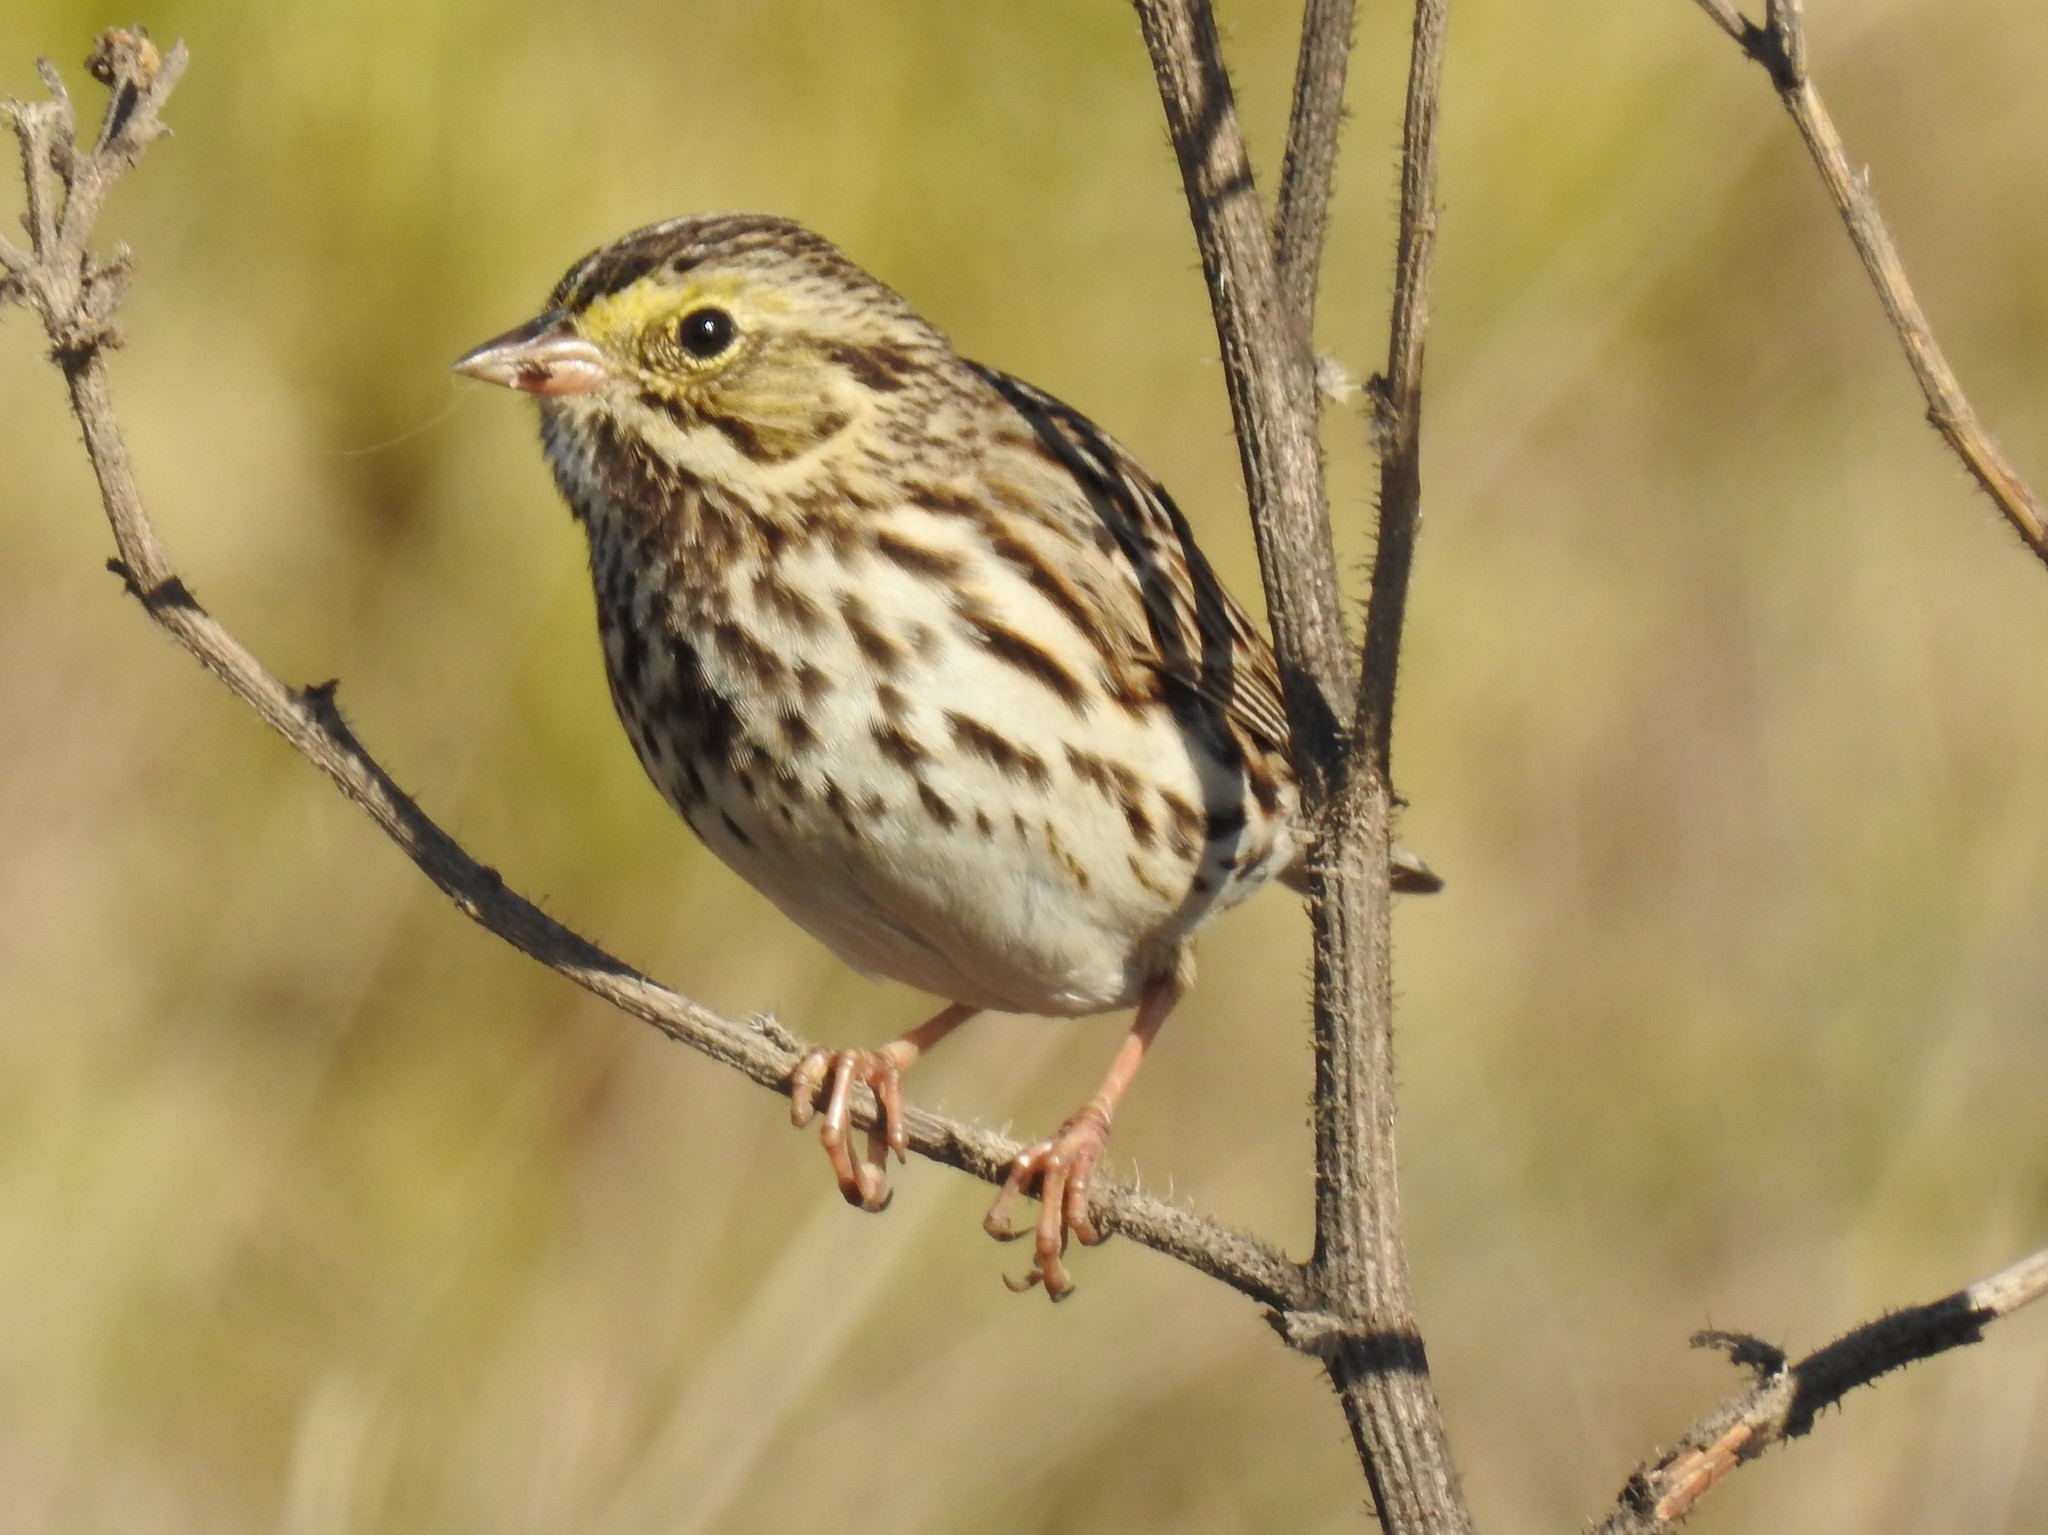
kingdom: Animalia
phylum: Chordata
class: Aves
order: Passeriformes
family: Passerellidae
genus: Passerculus
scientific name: Passerculus sandwichensis
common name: Savannah sparrow
